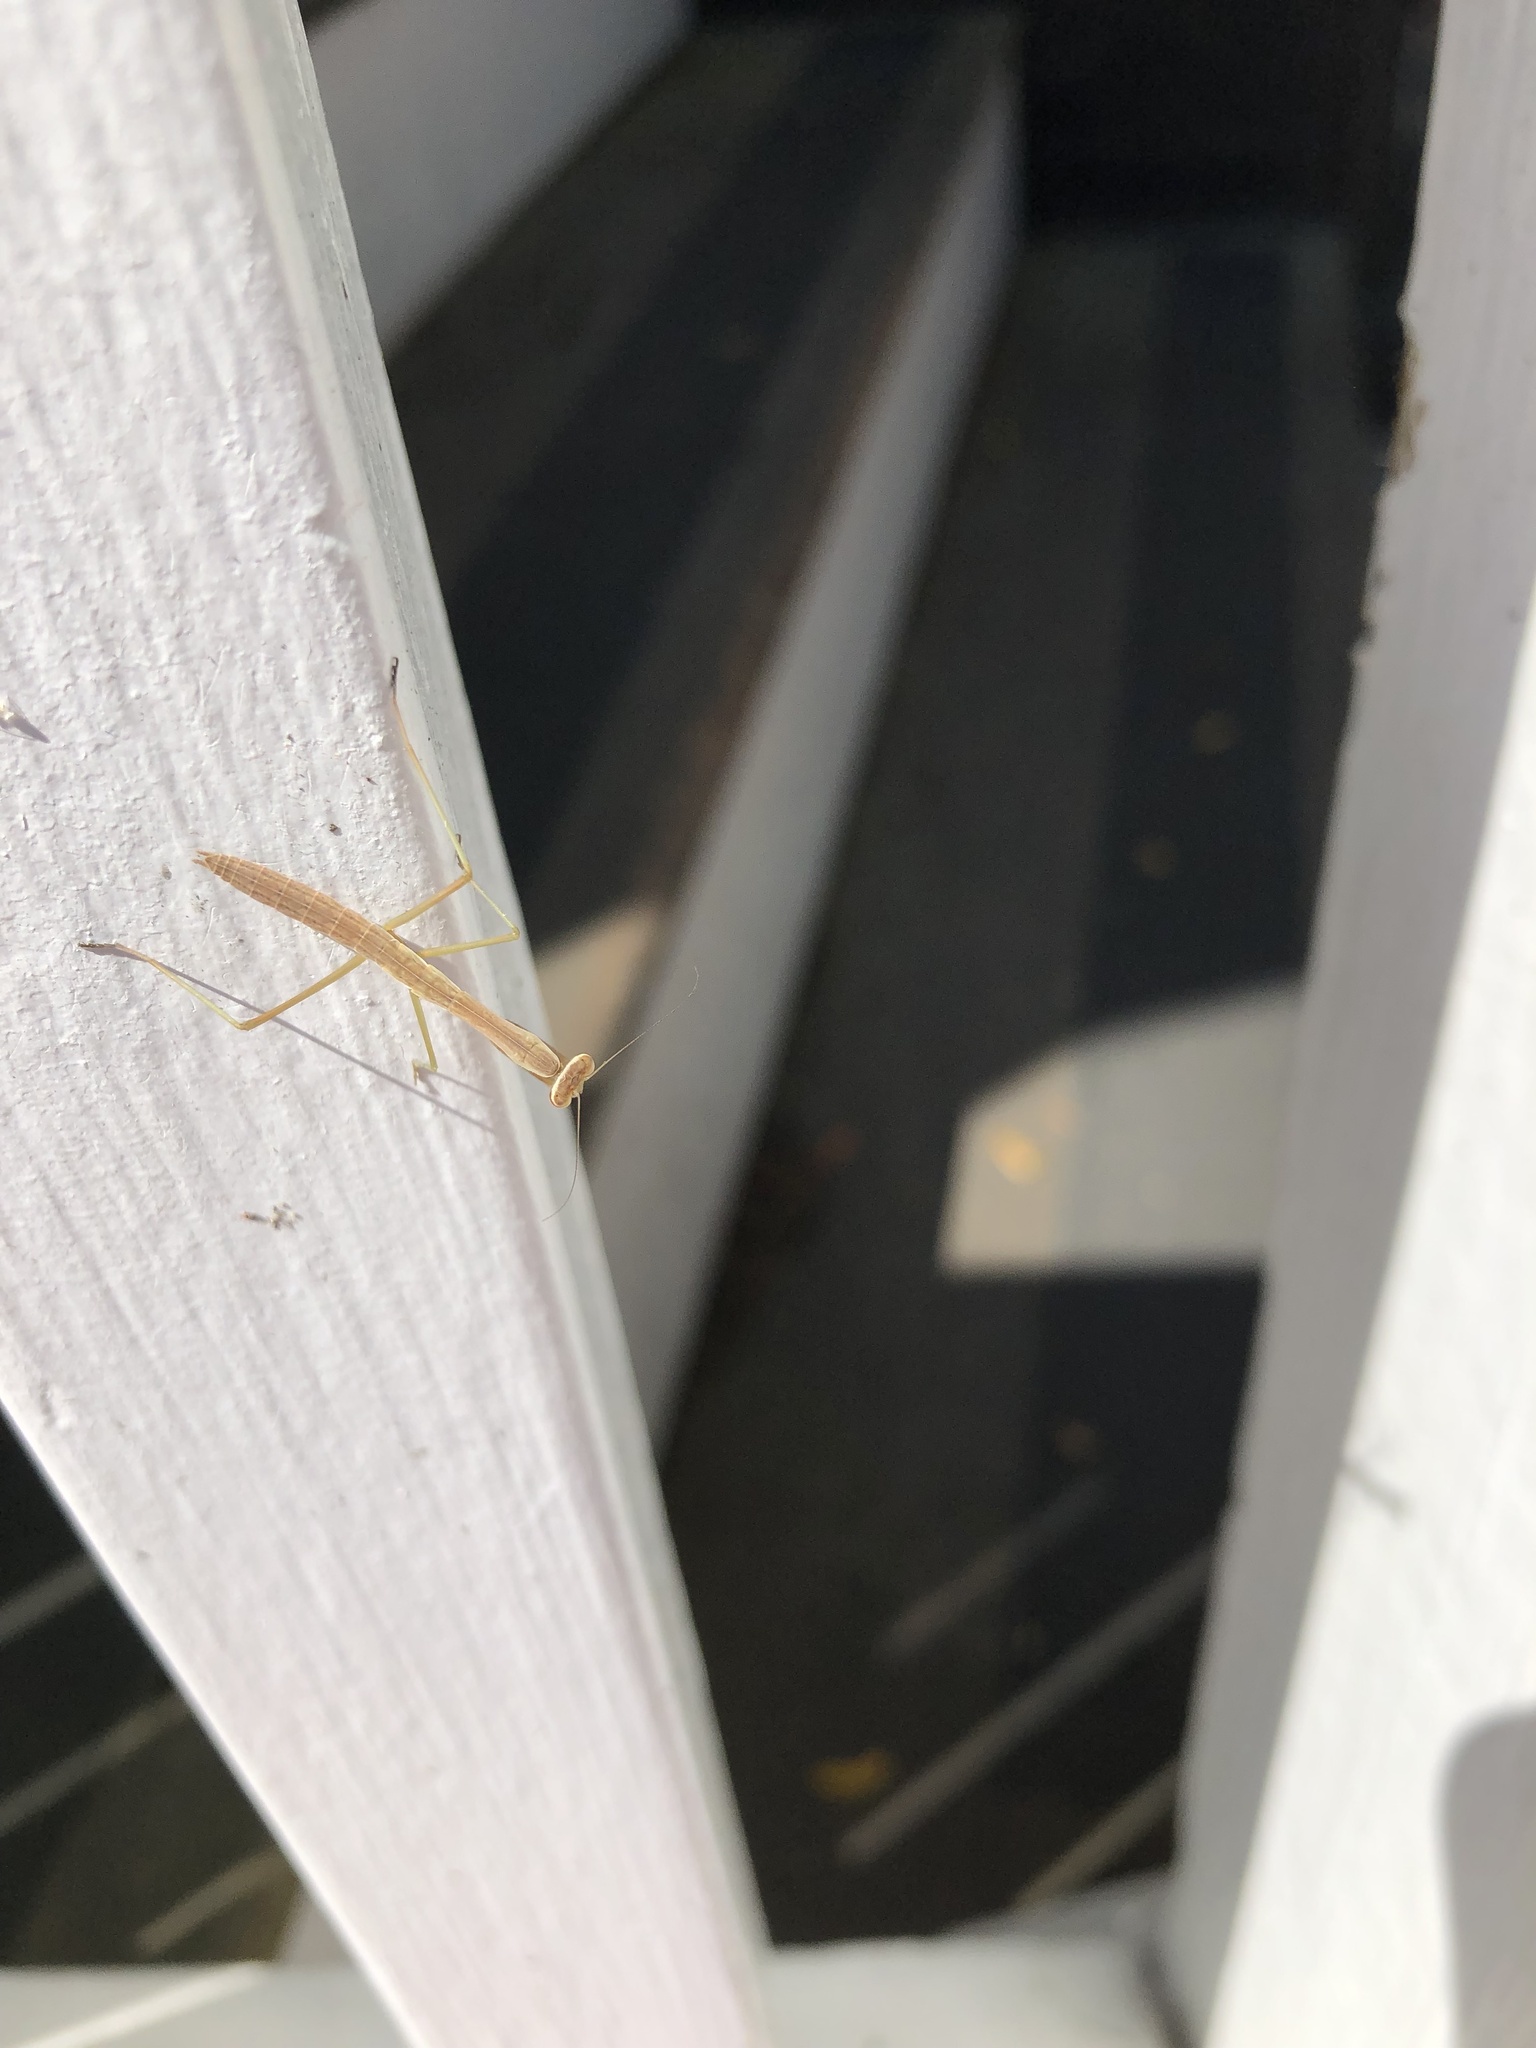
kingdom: Animalia
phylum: Arthropoda
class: Insecta
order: Mantodea
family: Mantidae
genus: Tenodera
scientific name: Tenodera sinensis
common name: Chinese mantis
